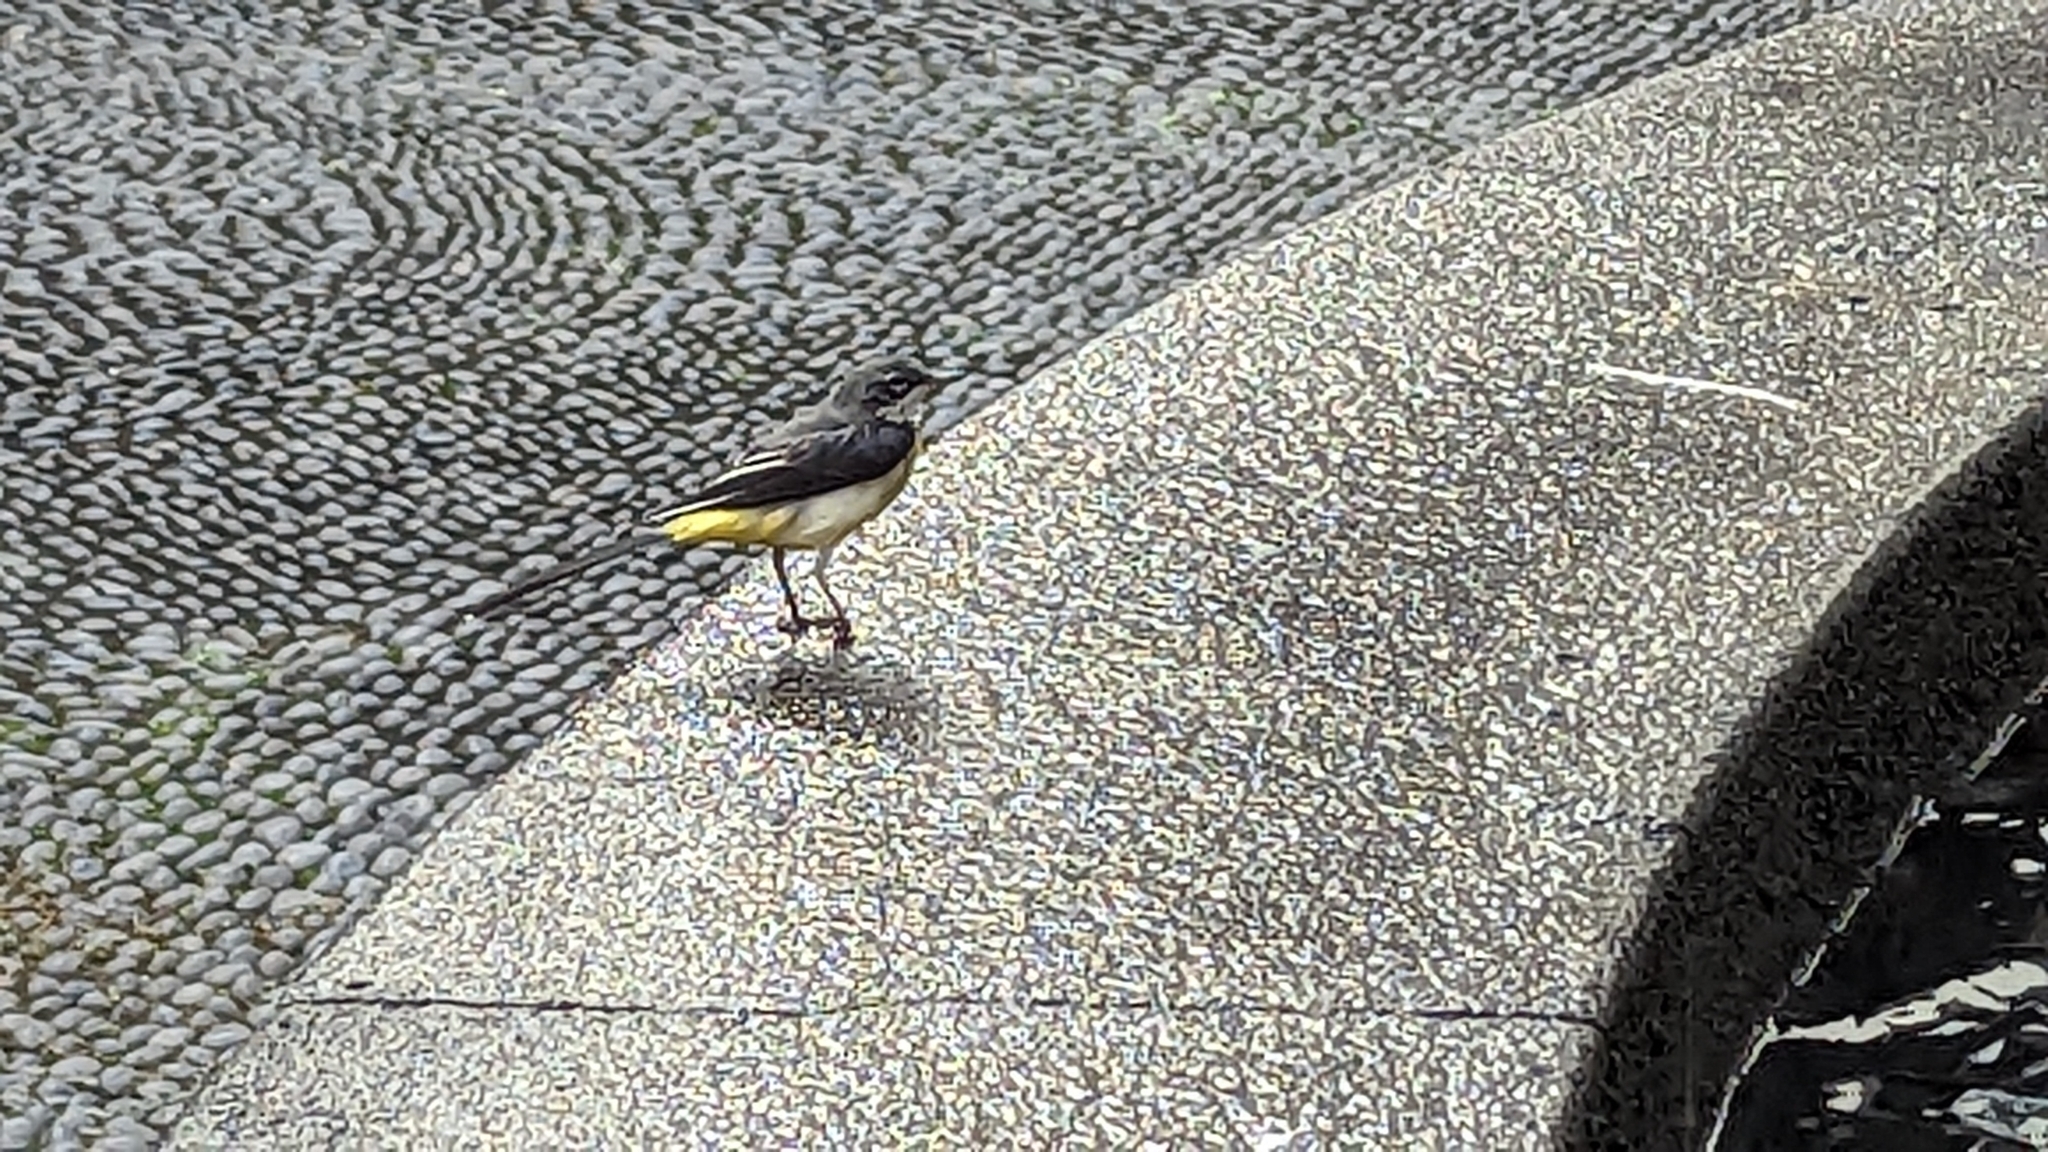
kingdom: Animalia
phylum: Chordata
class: Aves
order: Passeriformes
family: Motacillidae
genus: Motacilla
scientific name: Motacilla cinerea
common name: Grey wagtail
